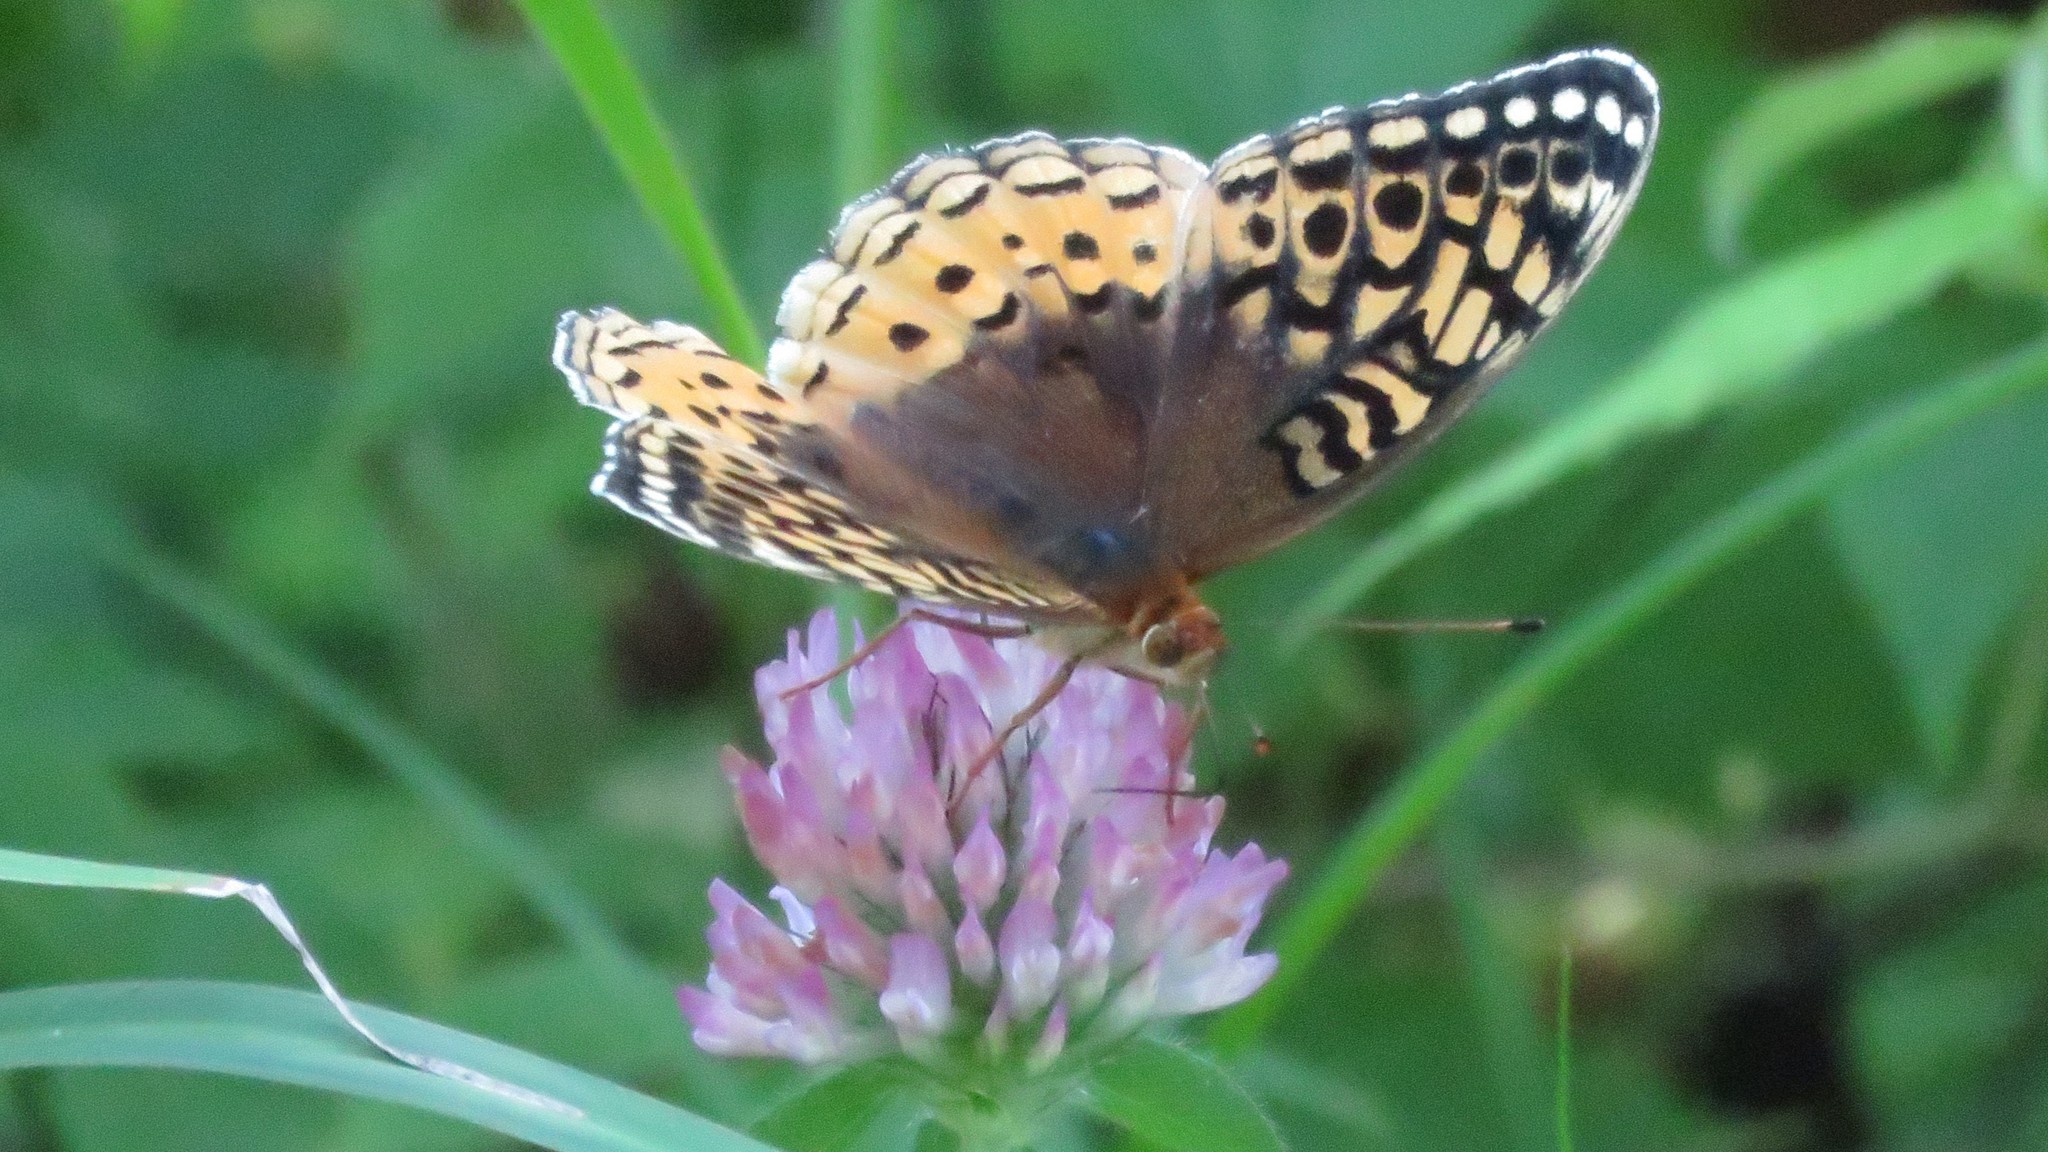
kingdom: Animalia
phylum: Arthropoda
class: Insecta
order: Lepidoptera
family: Nymphalidae
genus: Speyeria
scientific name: Speyeria cybele
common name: Great spangled fritillary
